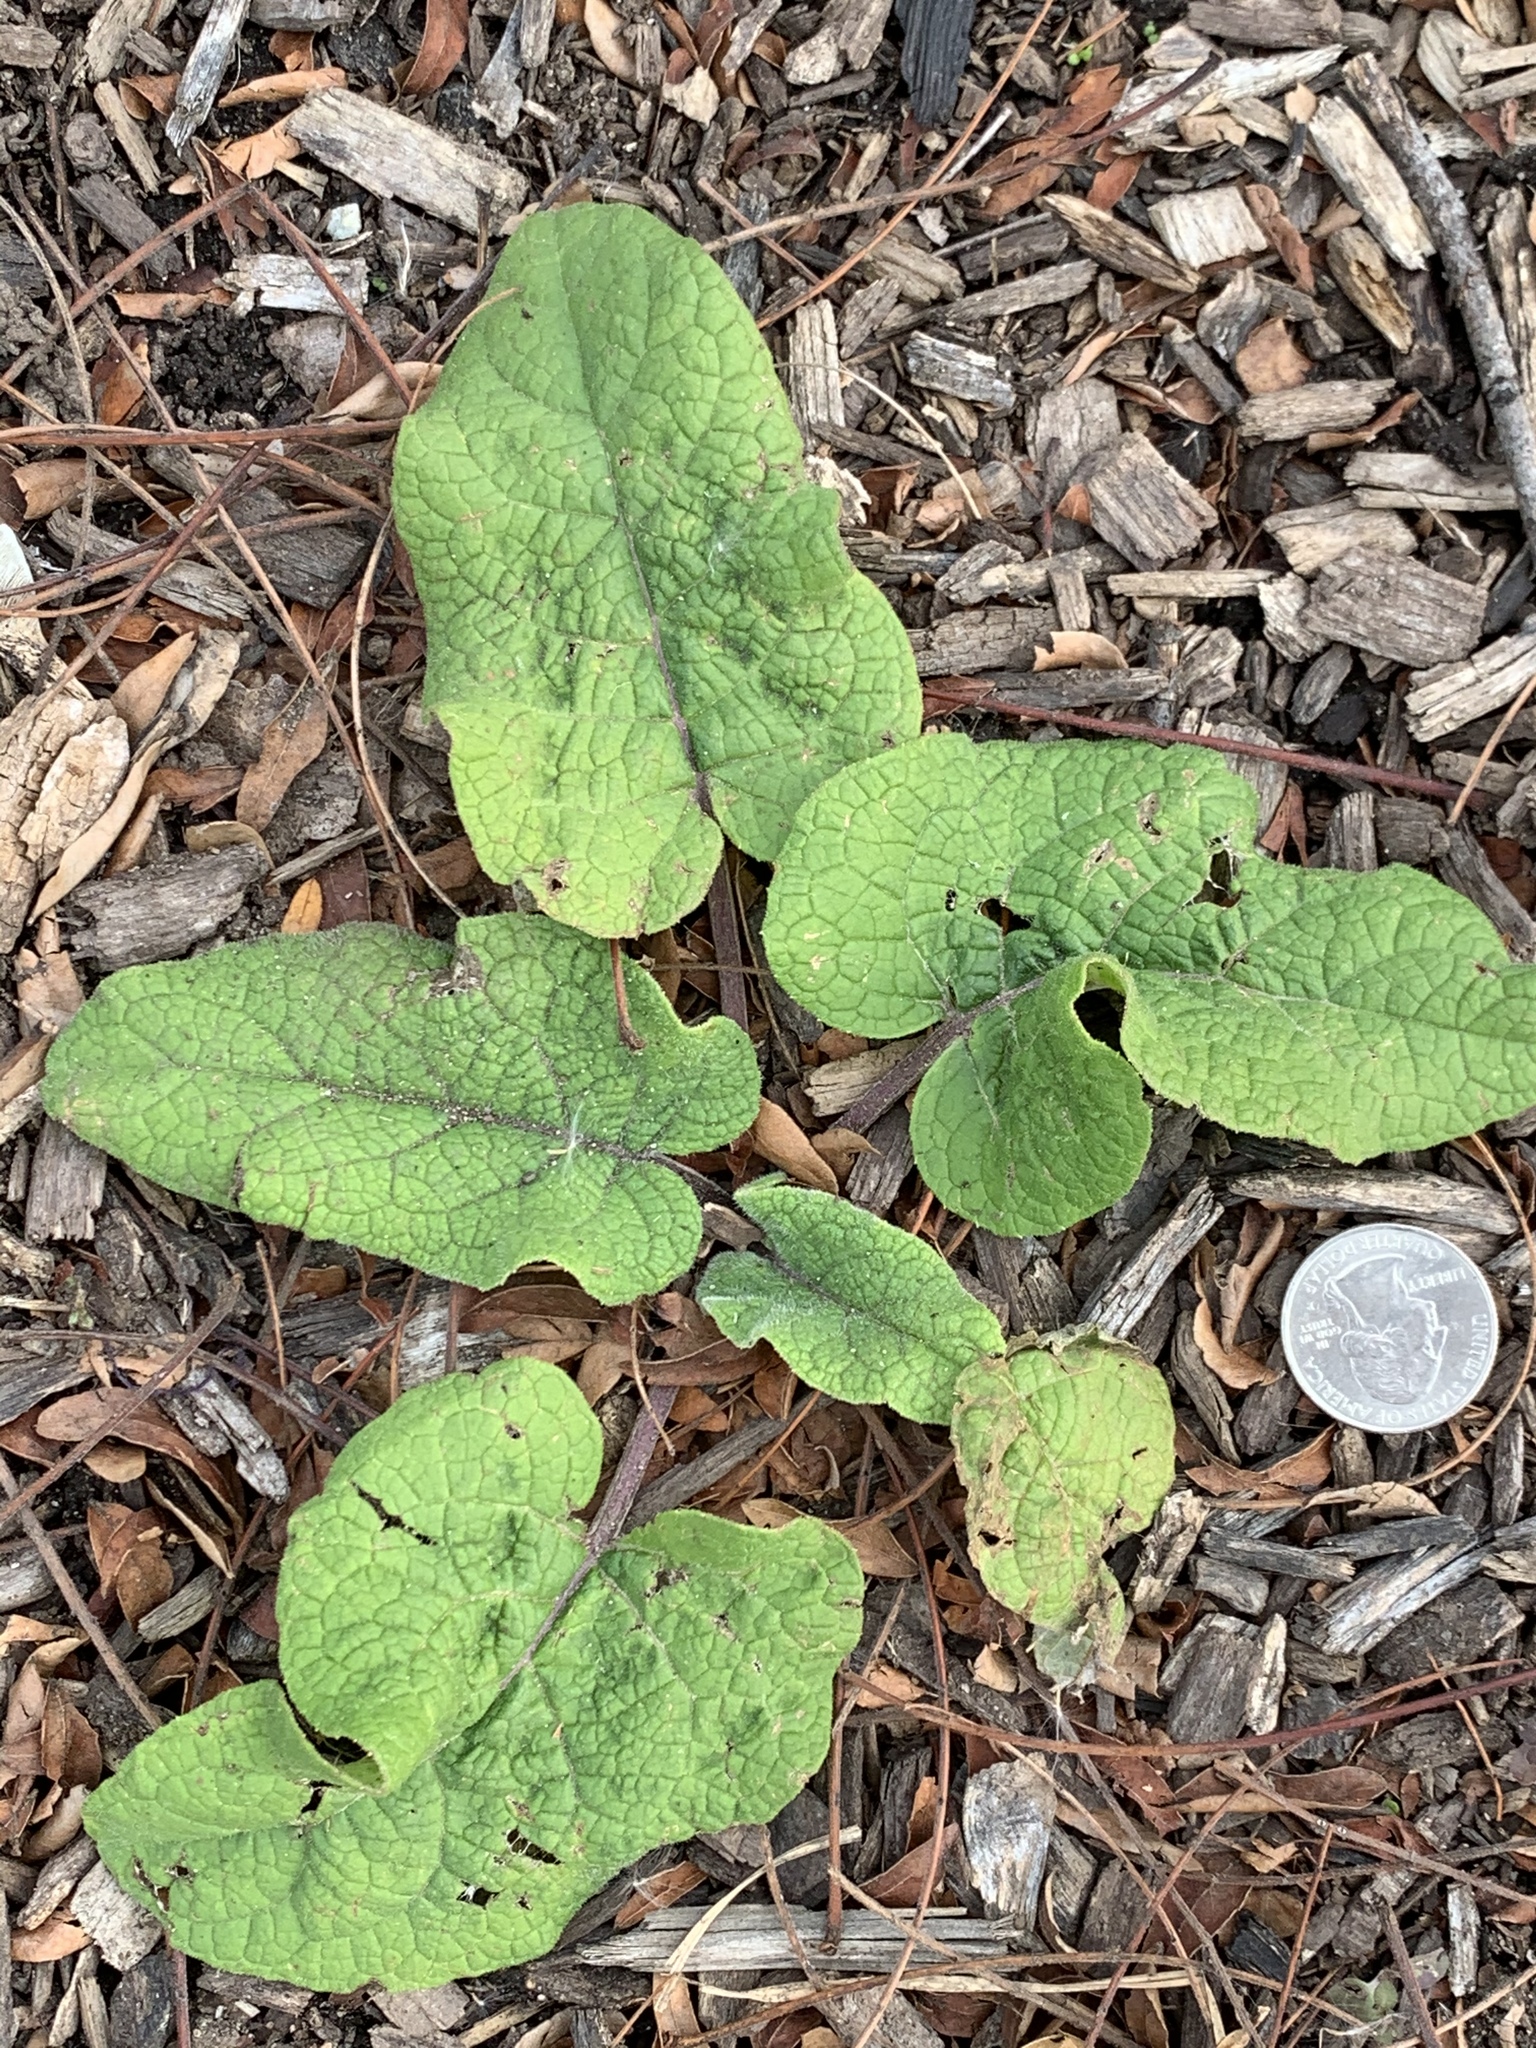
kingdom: Plantae
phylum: Tracheophyta
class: Magnoliopsida
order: Asterales
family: Asteraceae
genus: Arctium
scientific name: Arctium
